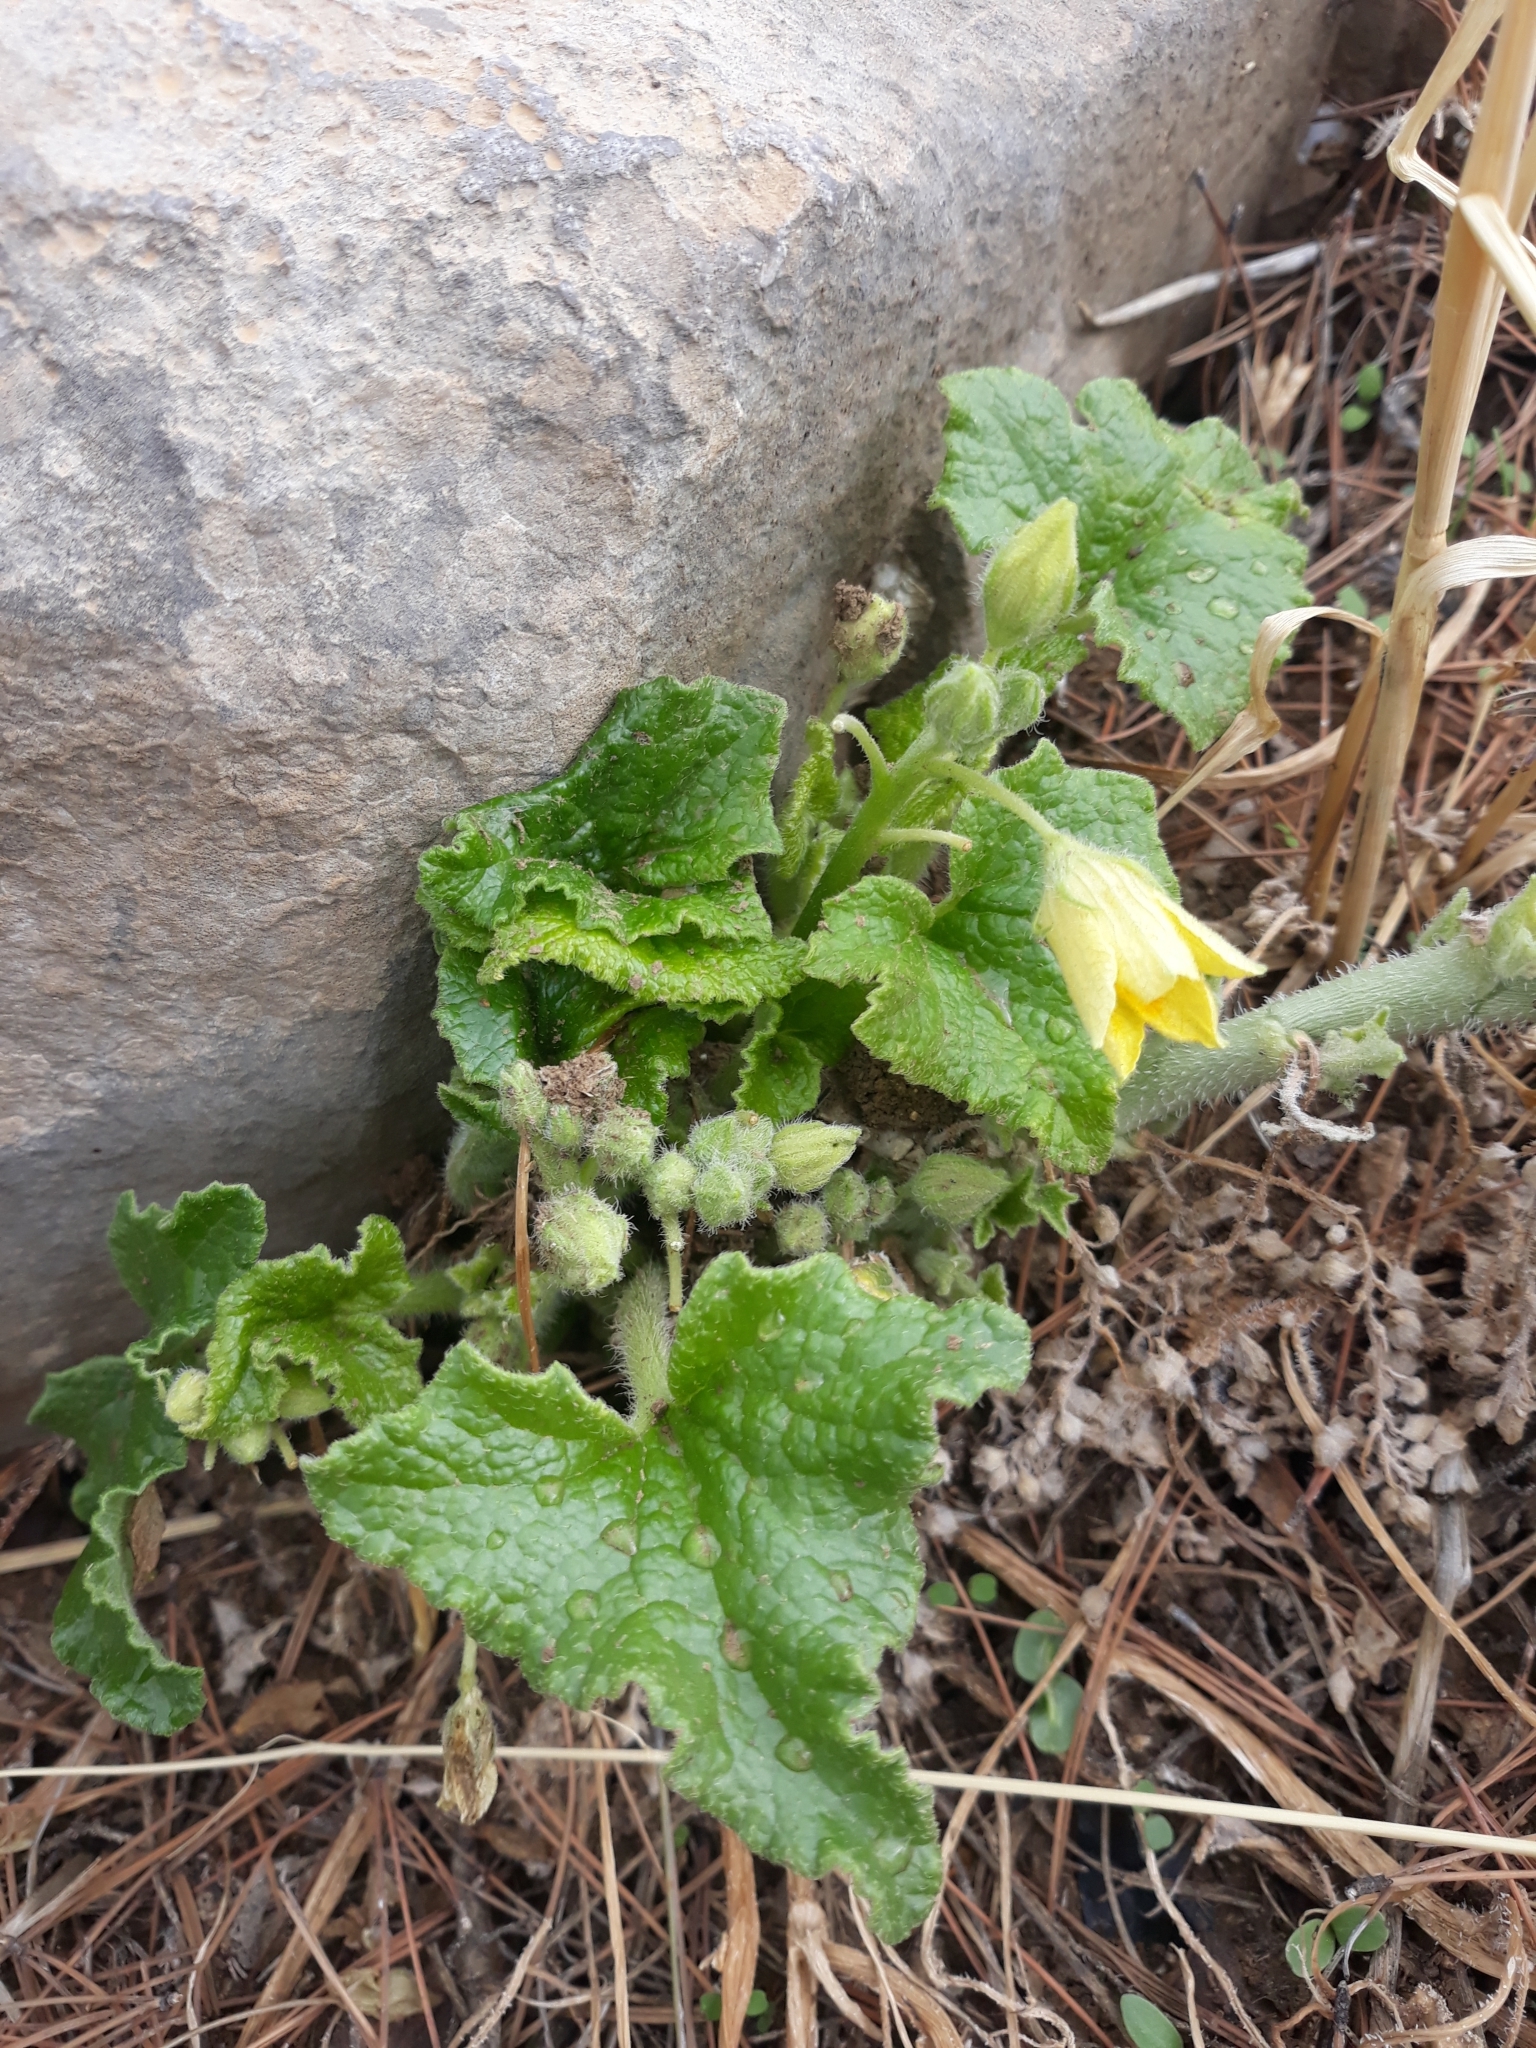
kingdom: Plantae
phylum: Tracheophyta
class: Magnoliopsida
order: Cucurbitales
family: Cucurbitaceae
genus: Ecballium
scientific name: Ecballium elaterium
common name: Squirting cucumber
